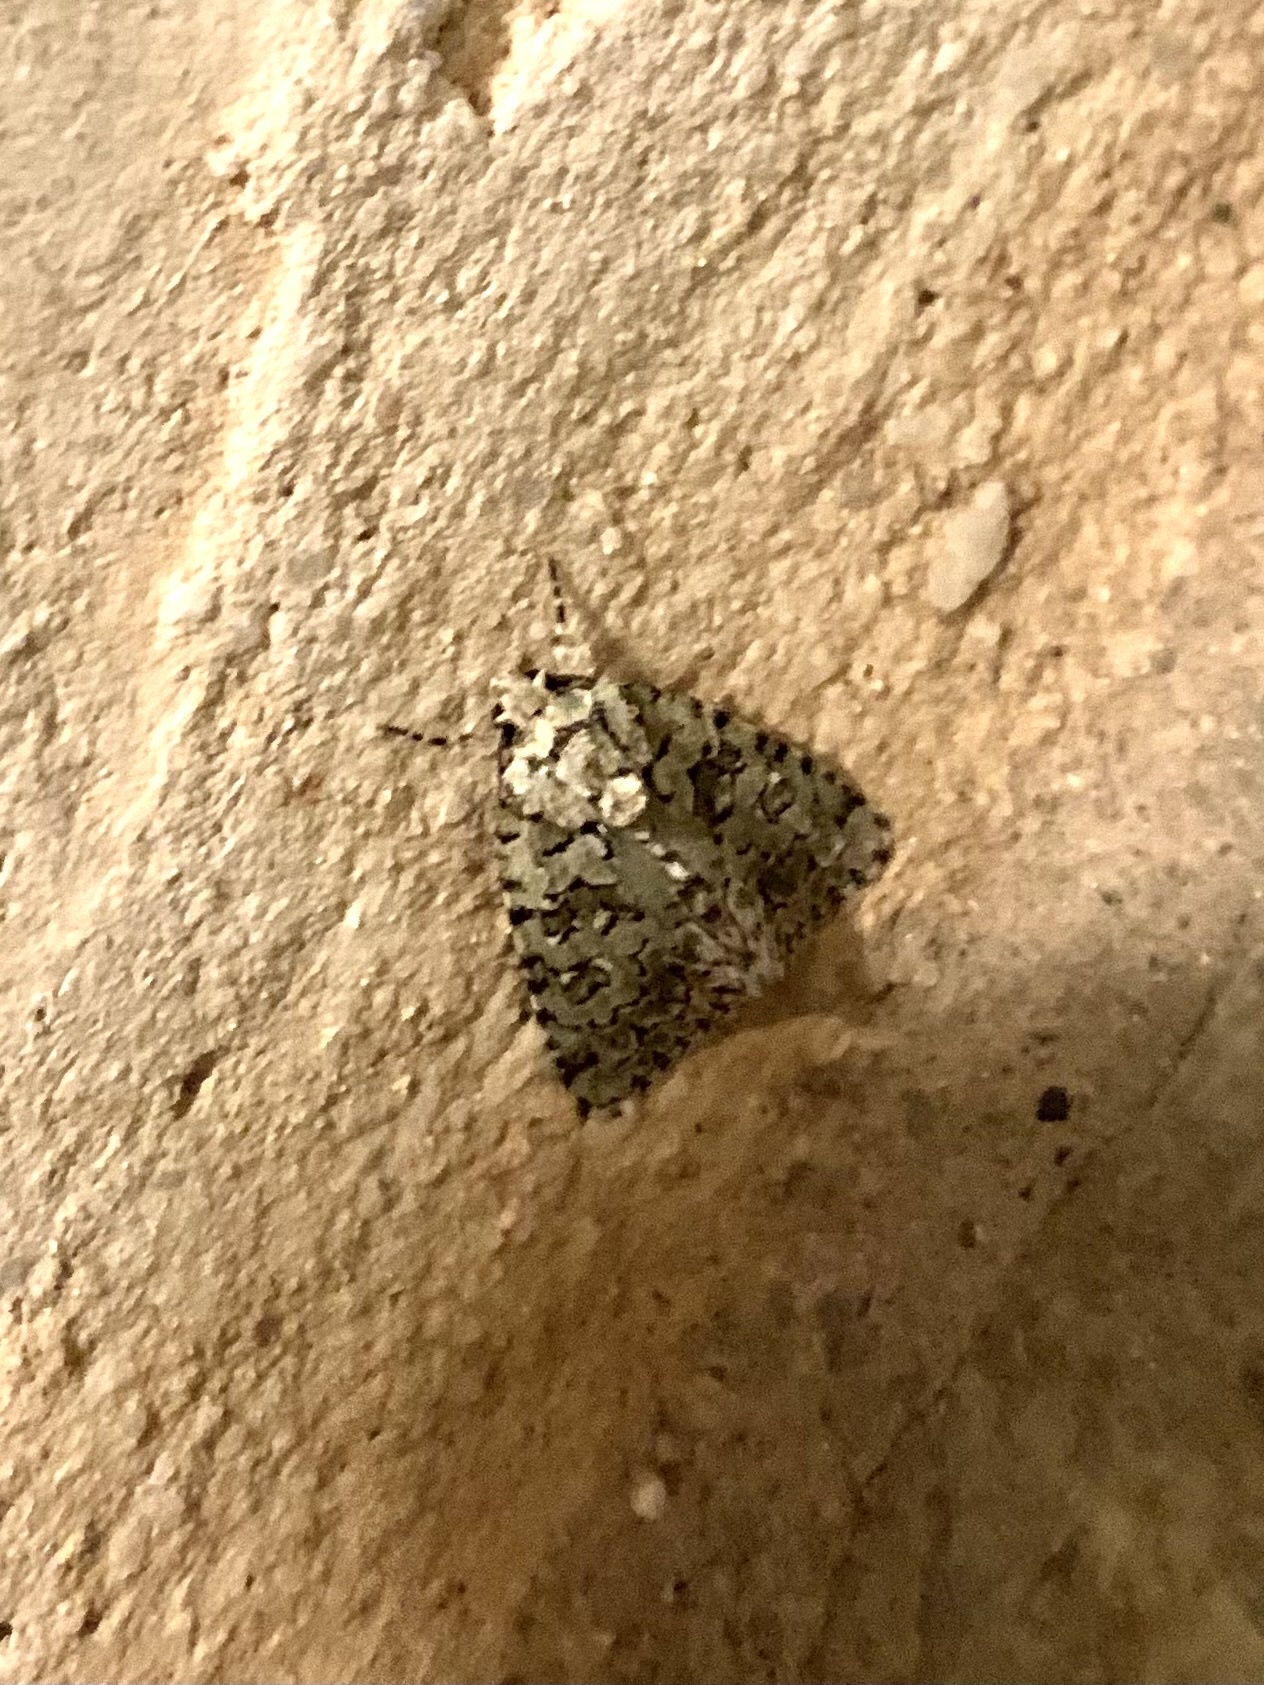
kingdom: Plantae
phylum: Chlorophyta
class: Ulvophyceae
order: Bryopsidales
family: Bryopsidaceae
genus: Bryopsis
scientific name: Bryopsis
